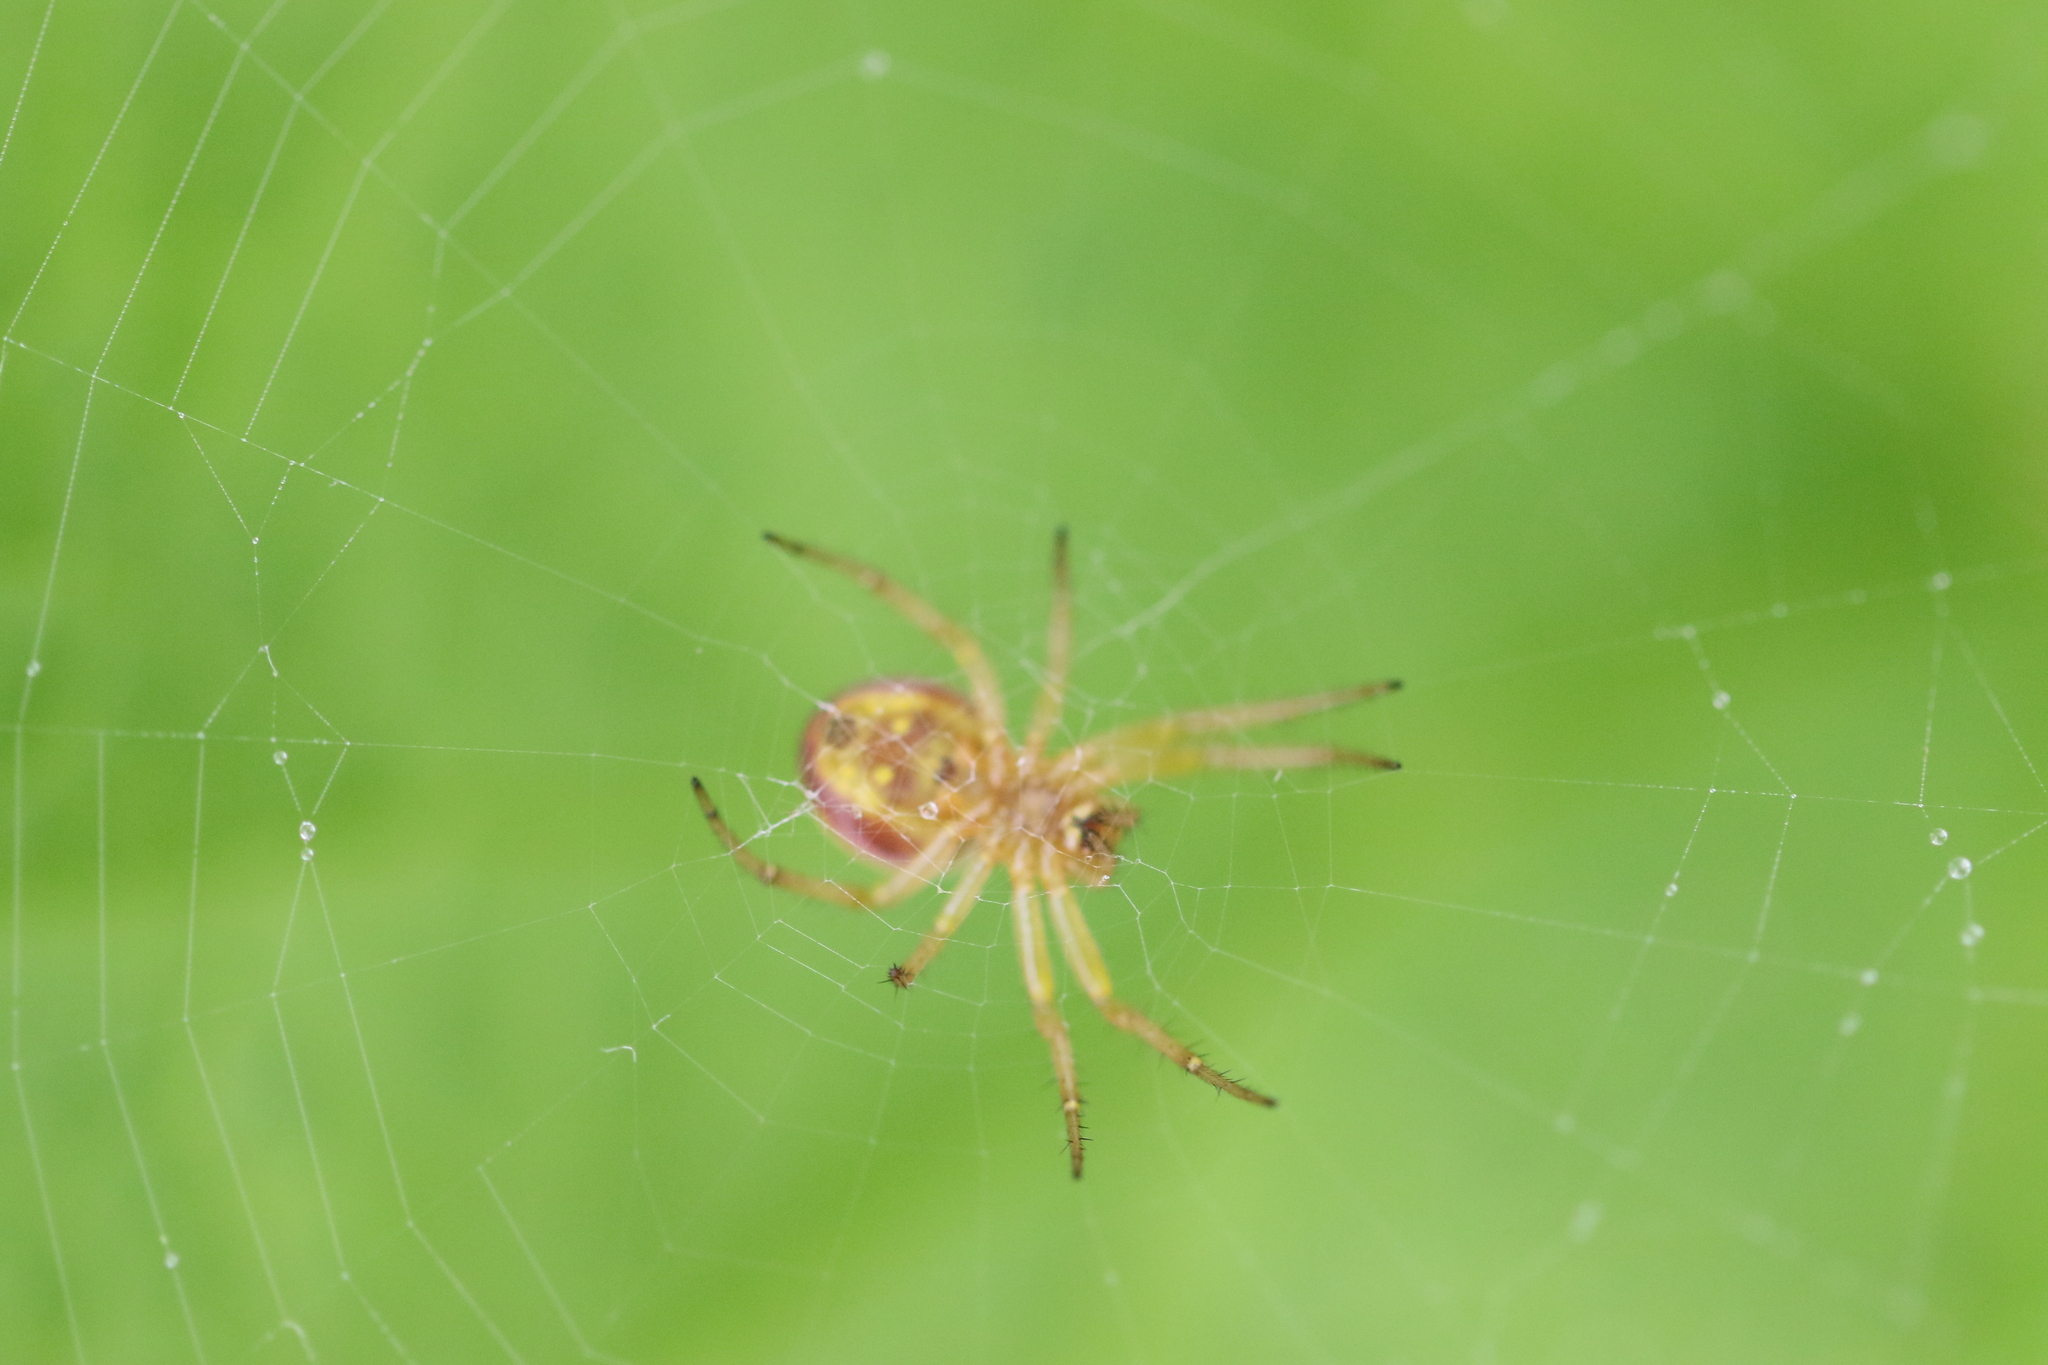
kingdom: Animalia
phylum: Arthropoda
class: Arachnida
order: Araneae
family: Araneidae
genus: Araniella
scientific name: Araniella displicata
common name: Sixspotted orb weaver
